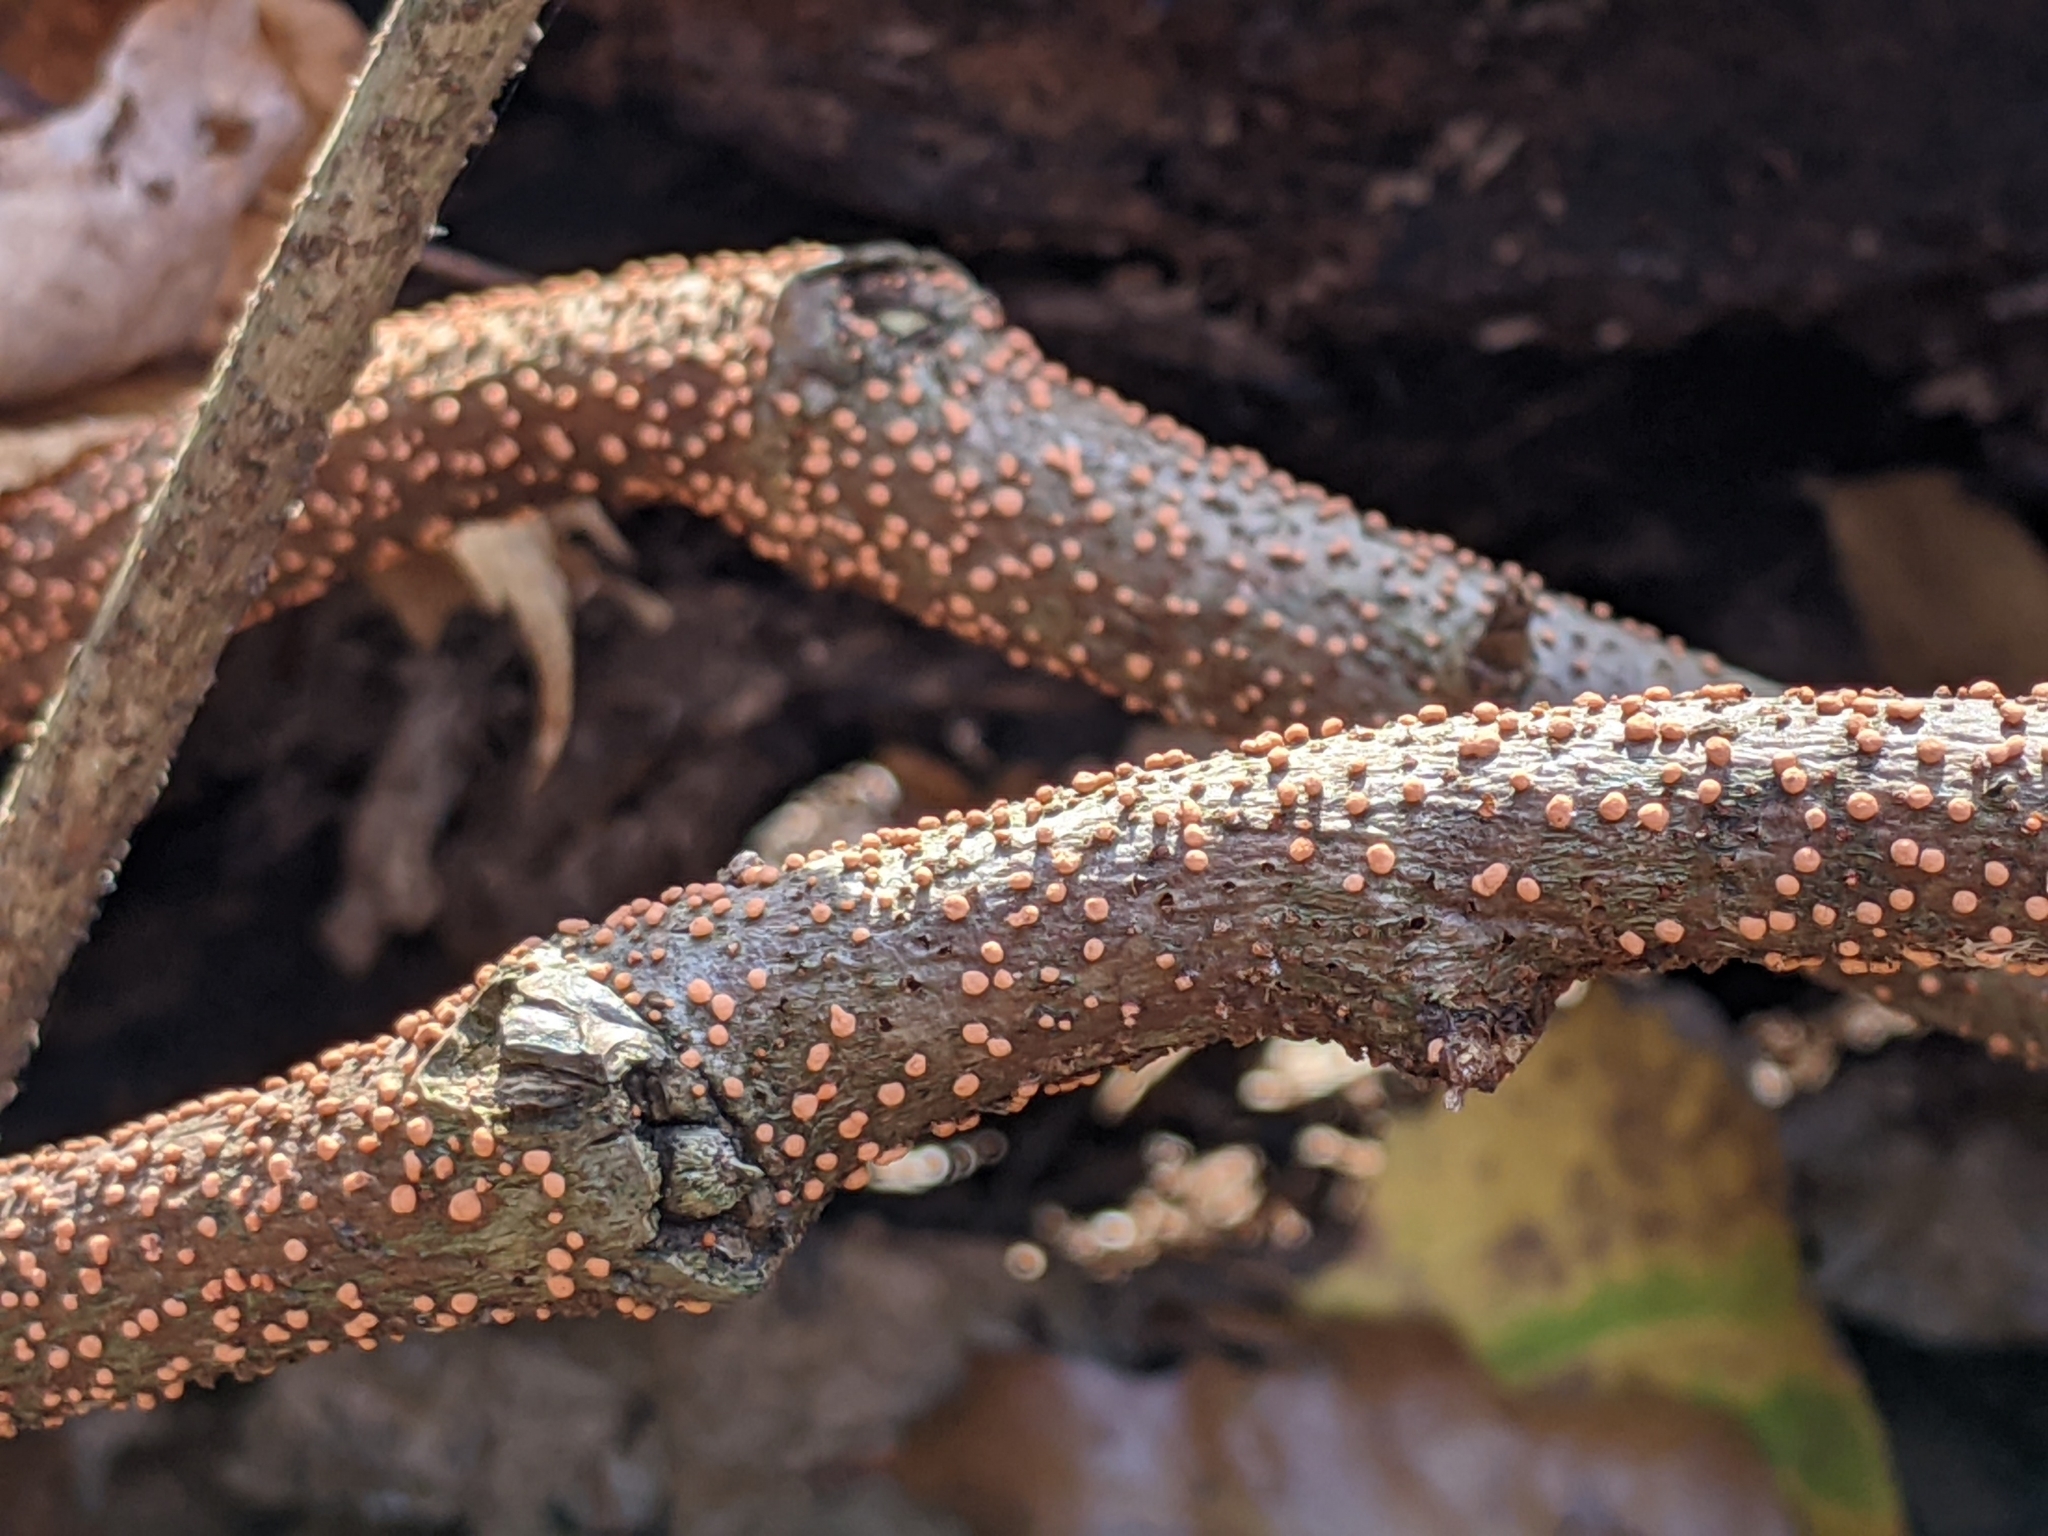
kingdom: Fungi
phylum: Ascomycota
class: Sordariomycetes
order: Hypocreales
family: Nectriaceae
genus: Nectria
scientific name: Nectria cinnabarina
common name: Coral spot
